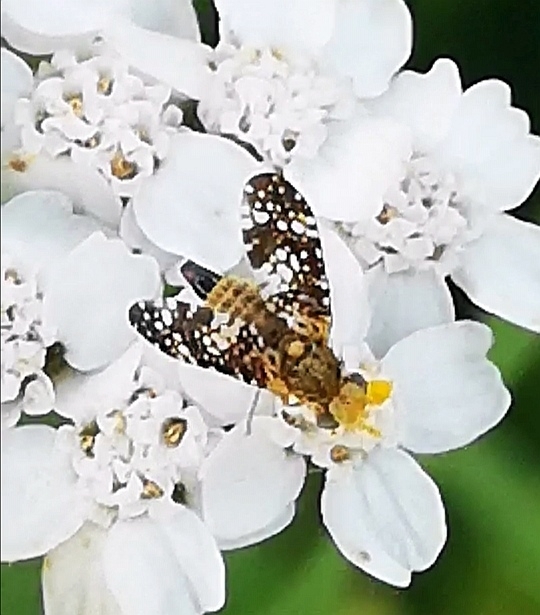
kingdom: Animalia
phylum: Arthropoda
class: Insecta
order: Diptera
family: Tephritidae
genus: Oxyna
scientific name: Oxyna flavipennis
